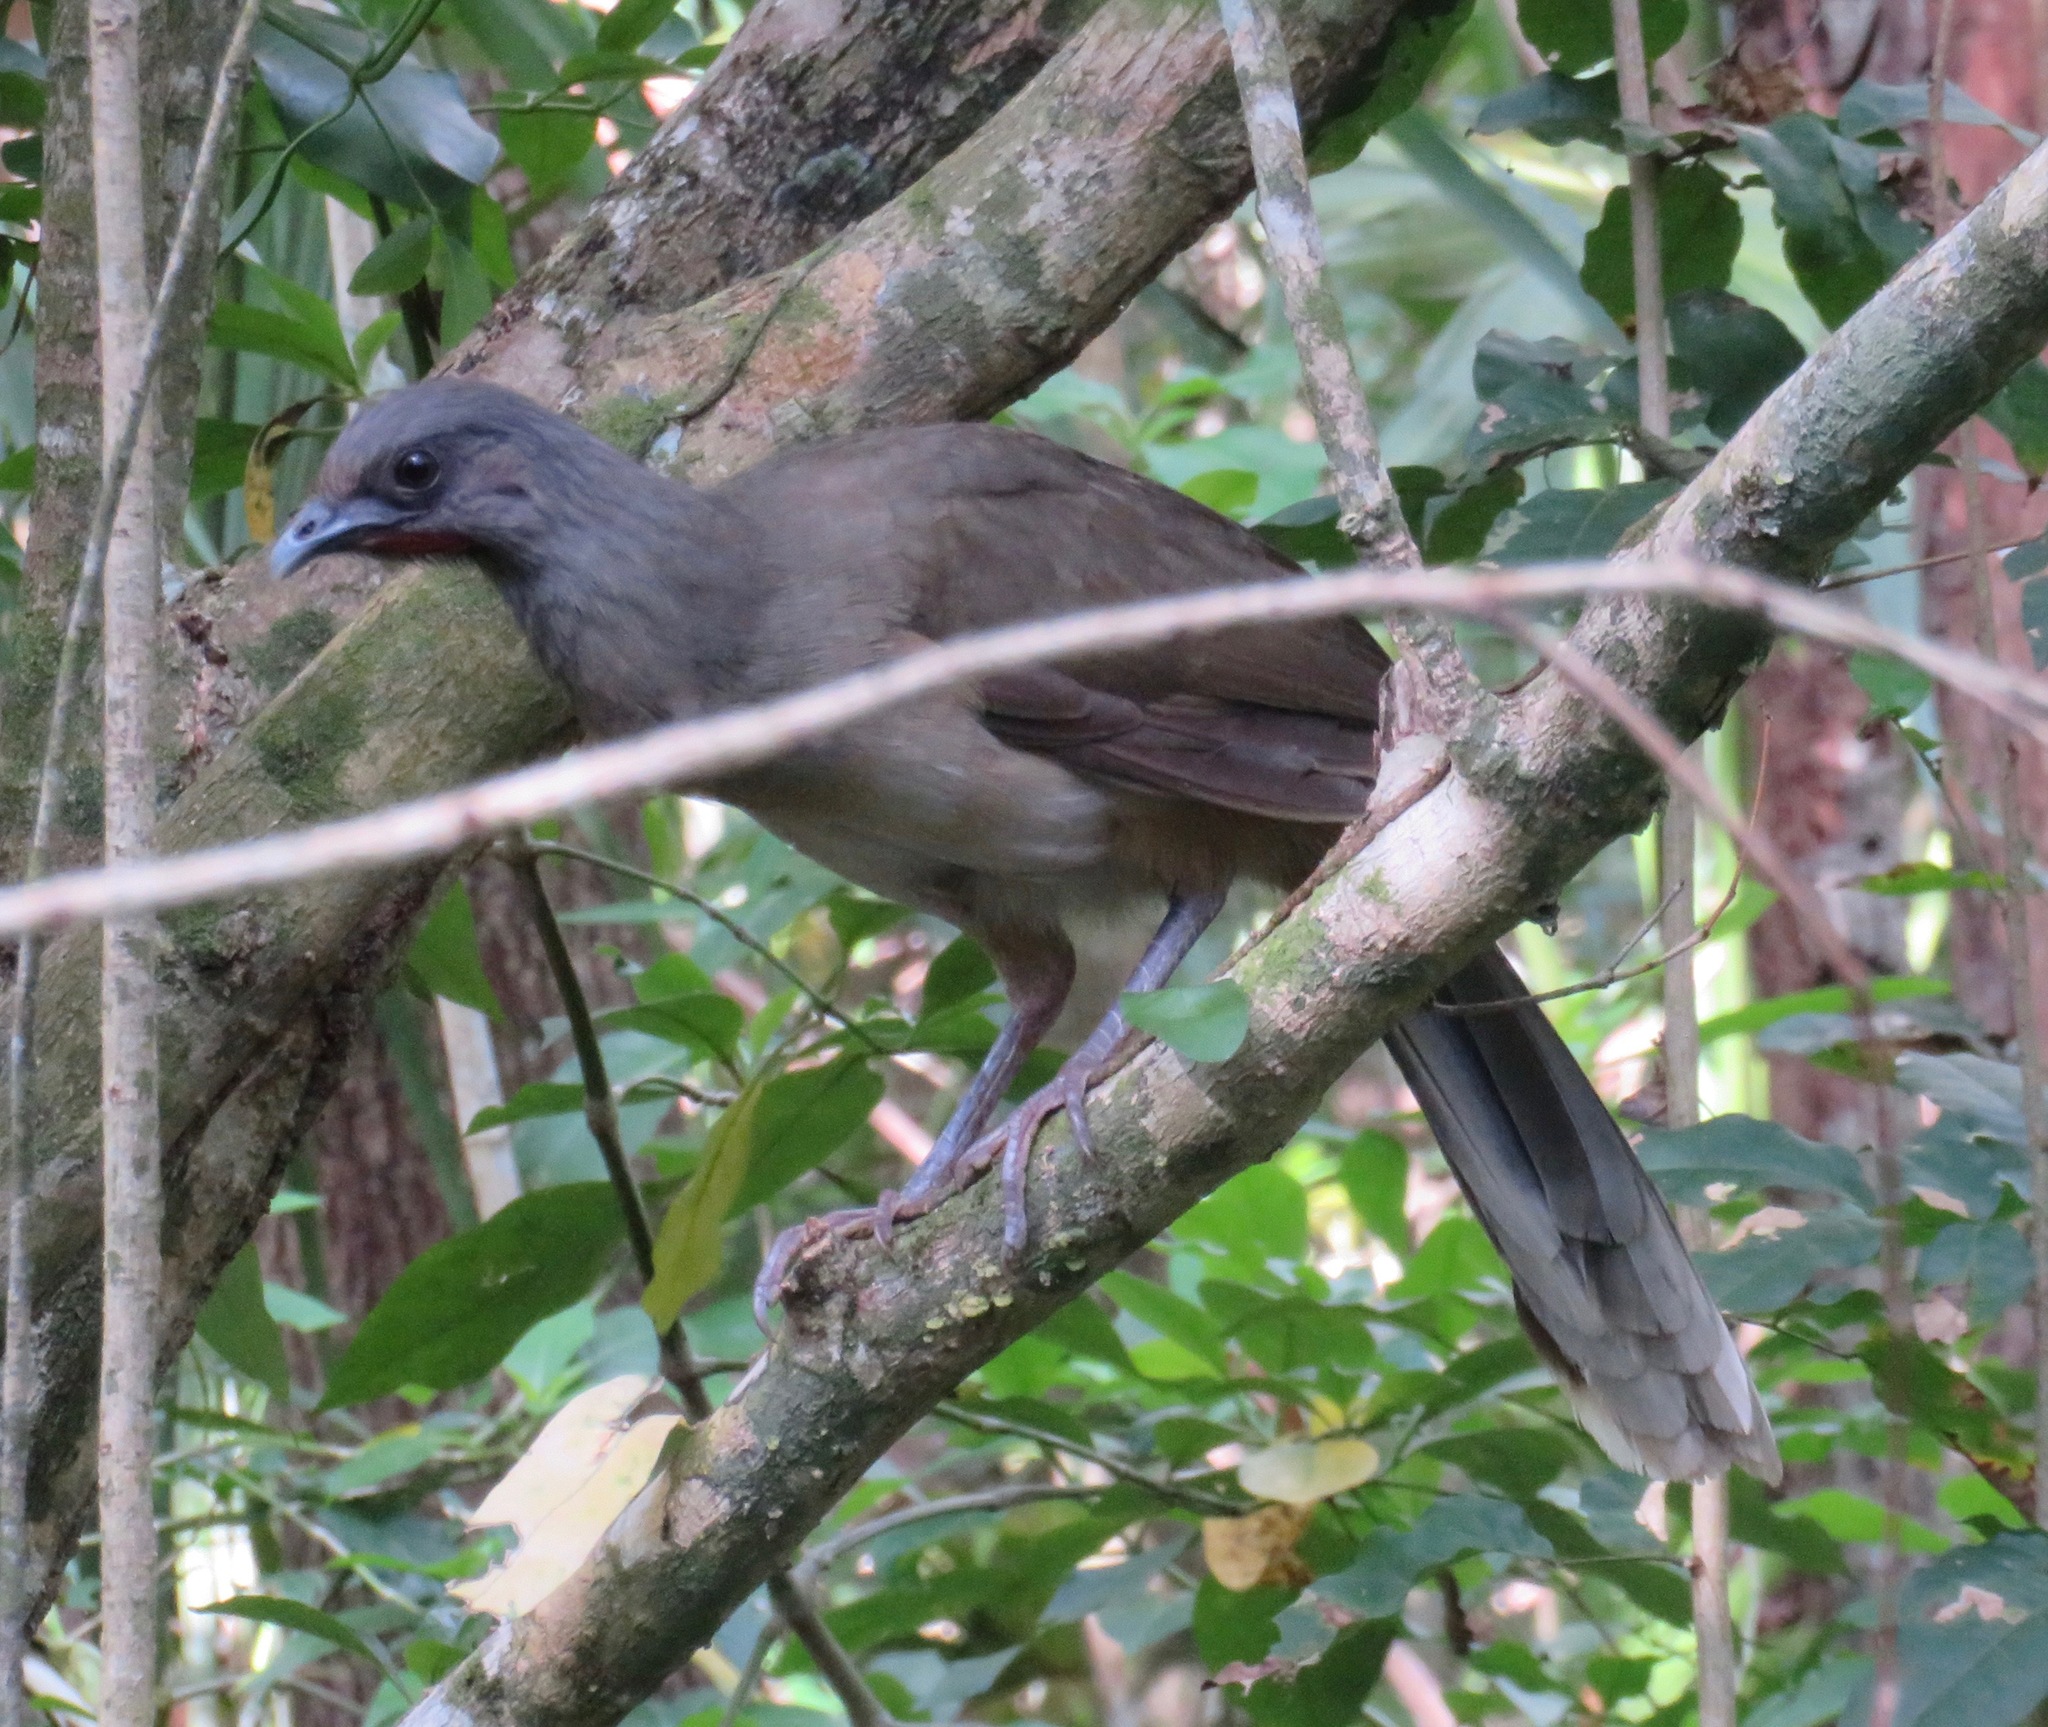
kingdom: Animalia
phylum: Chordata
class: Aves
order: Galliformes
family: Cracidae
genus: Ortalis
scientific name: Ortalis vetula
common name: Plain chachalaca
